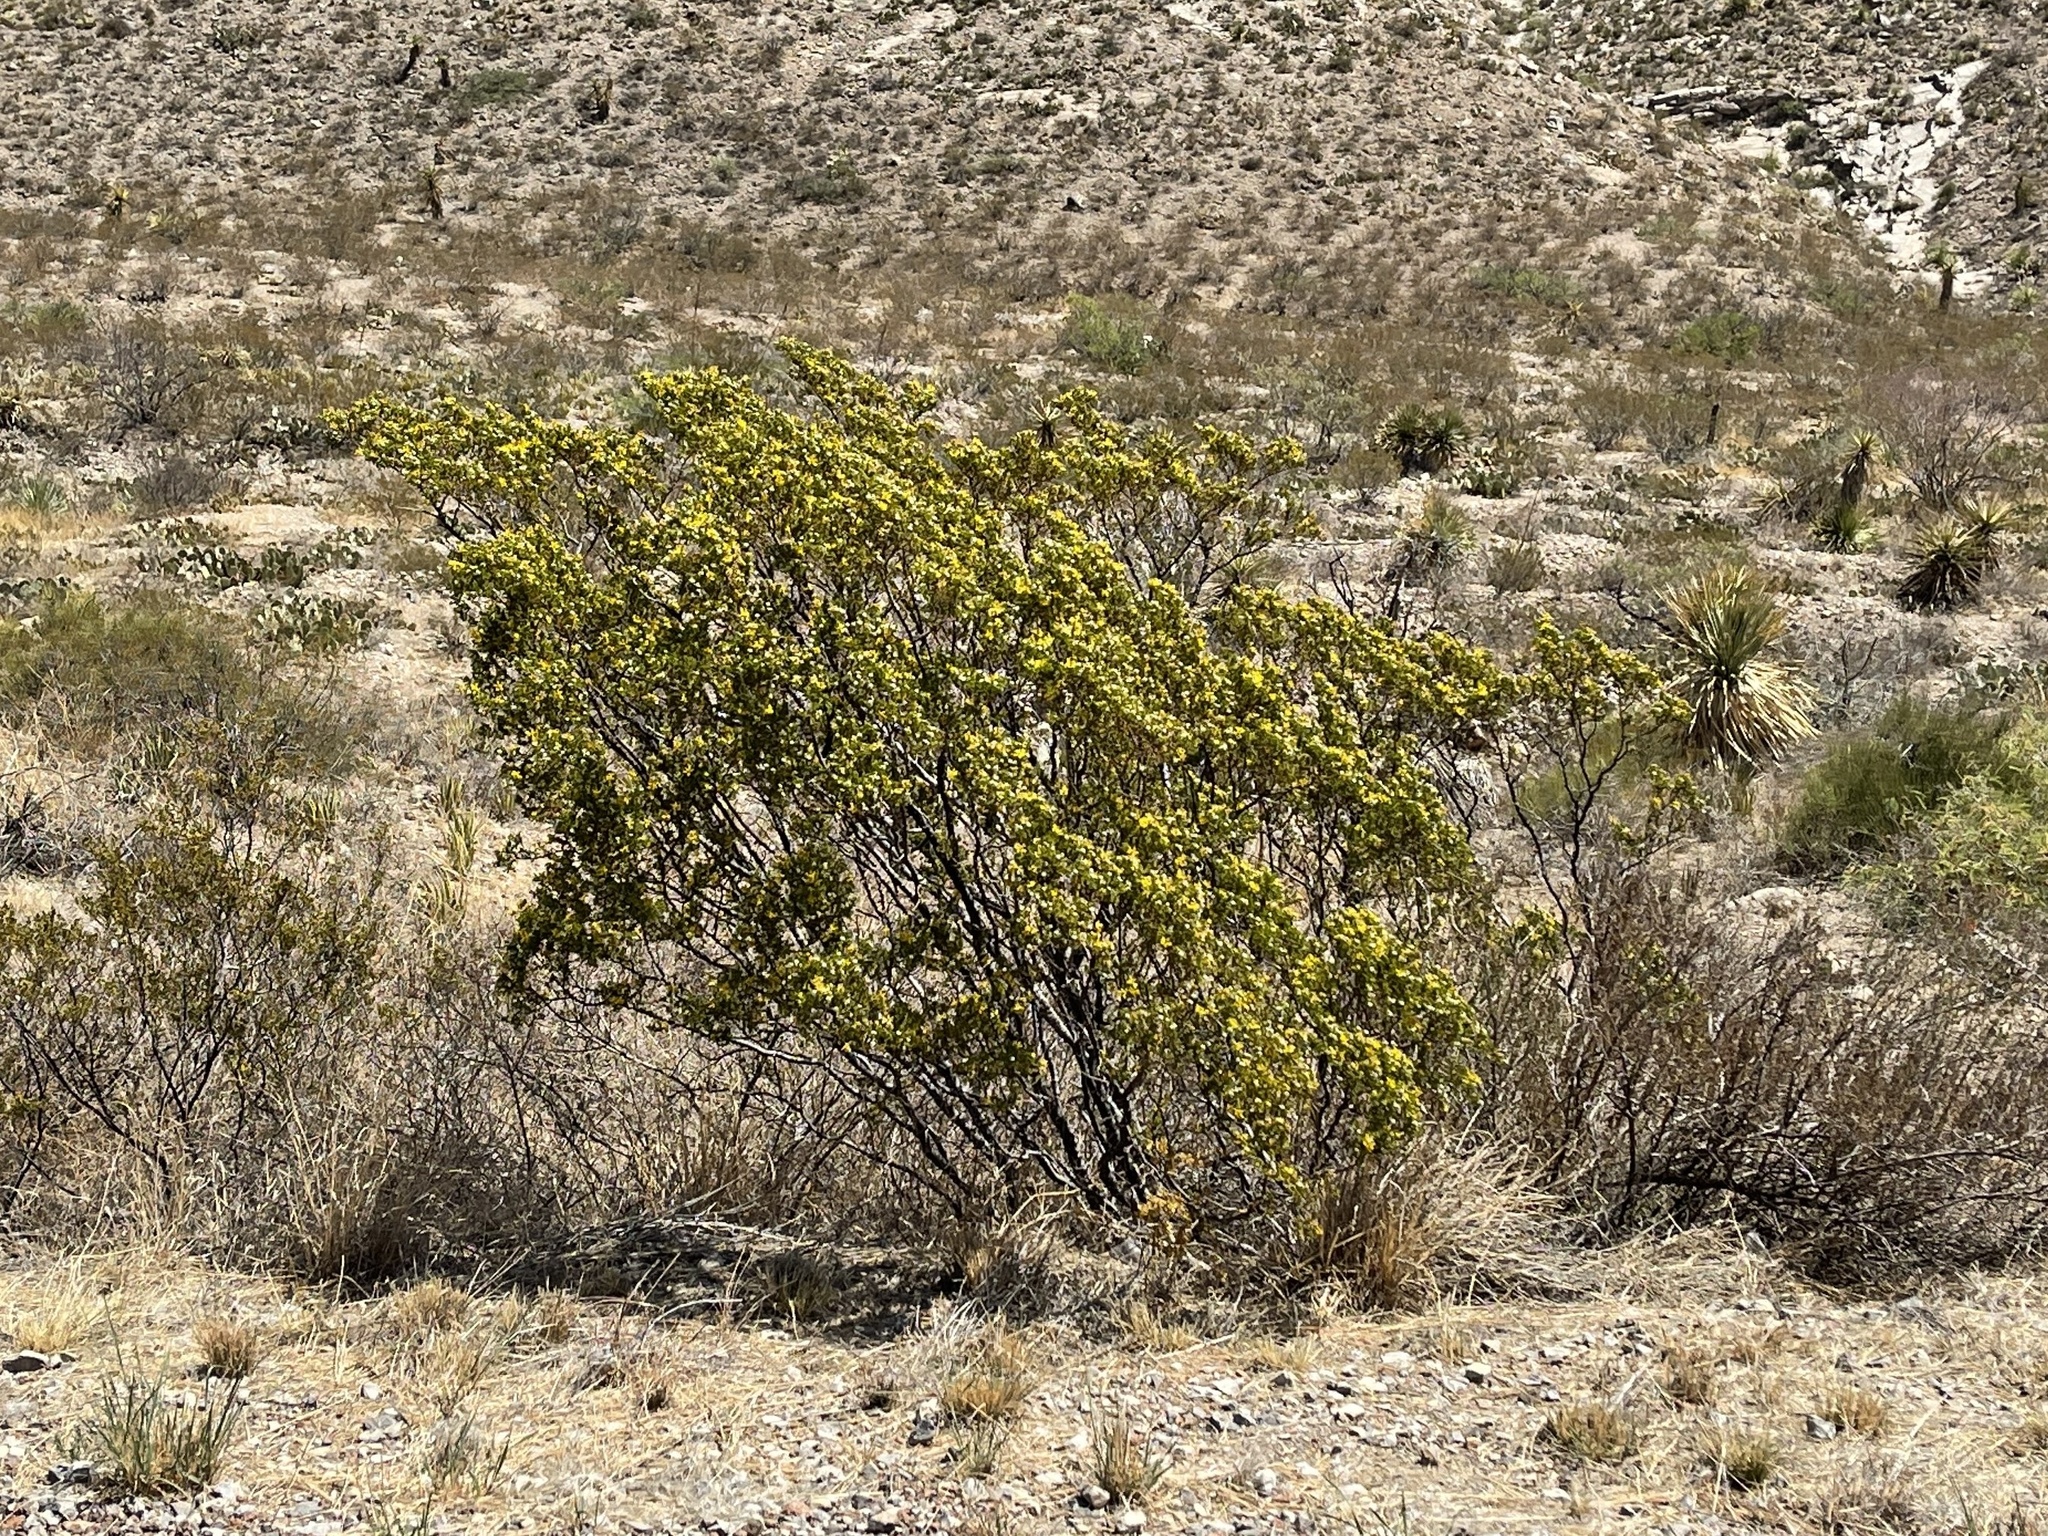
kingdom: Plantae
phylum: Tracheophyta
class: Magnoliopsida
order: Zygophyllales
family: Zygophyllaceae
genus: Larrea
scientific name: Larrea tridentata
